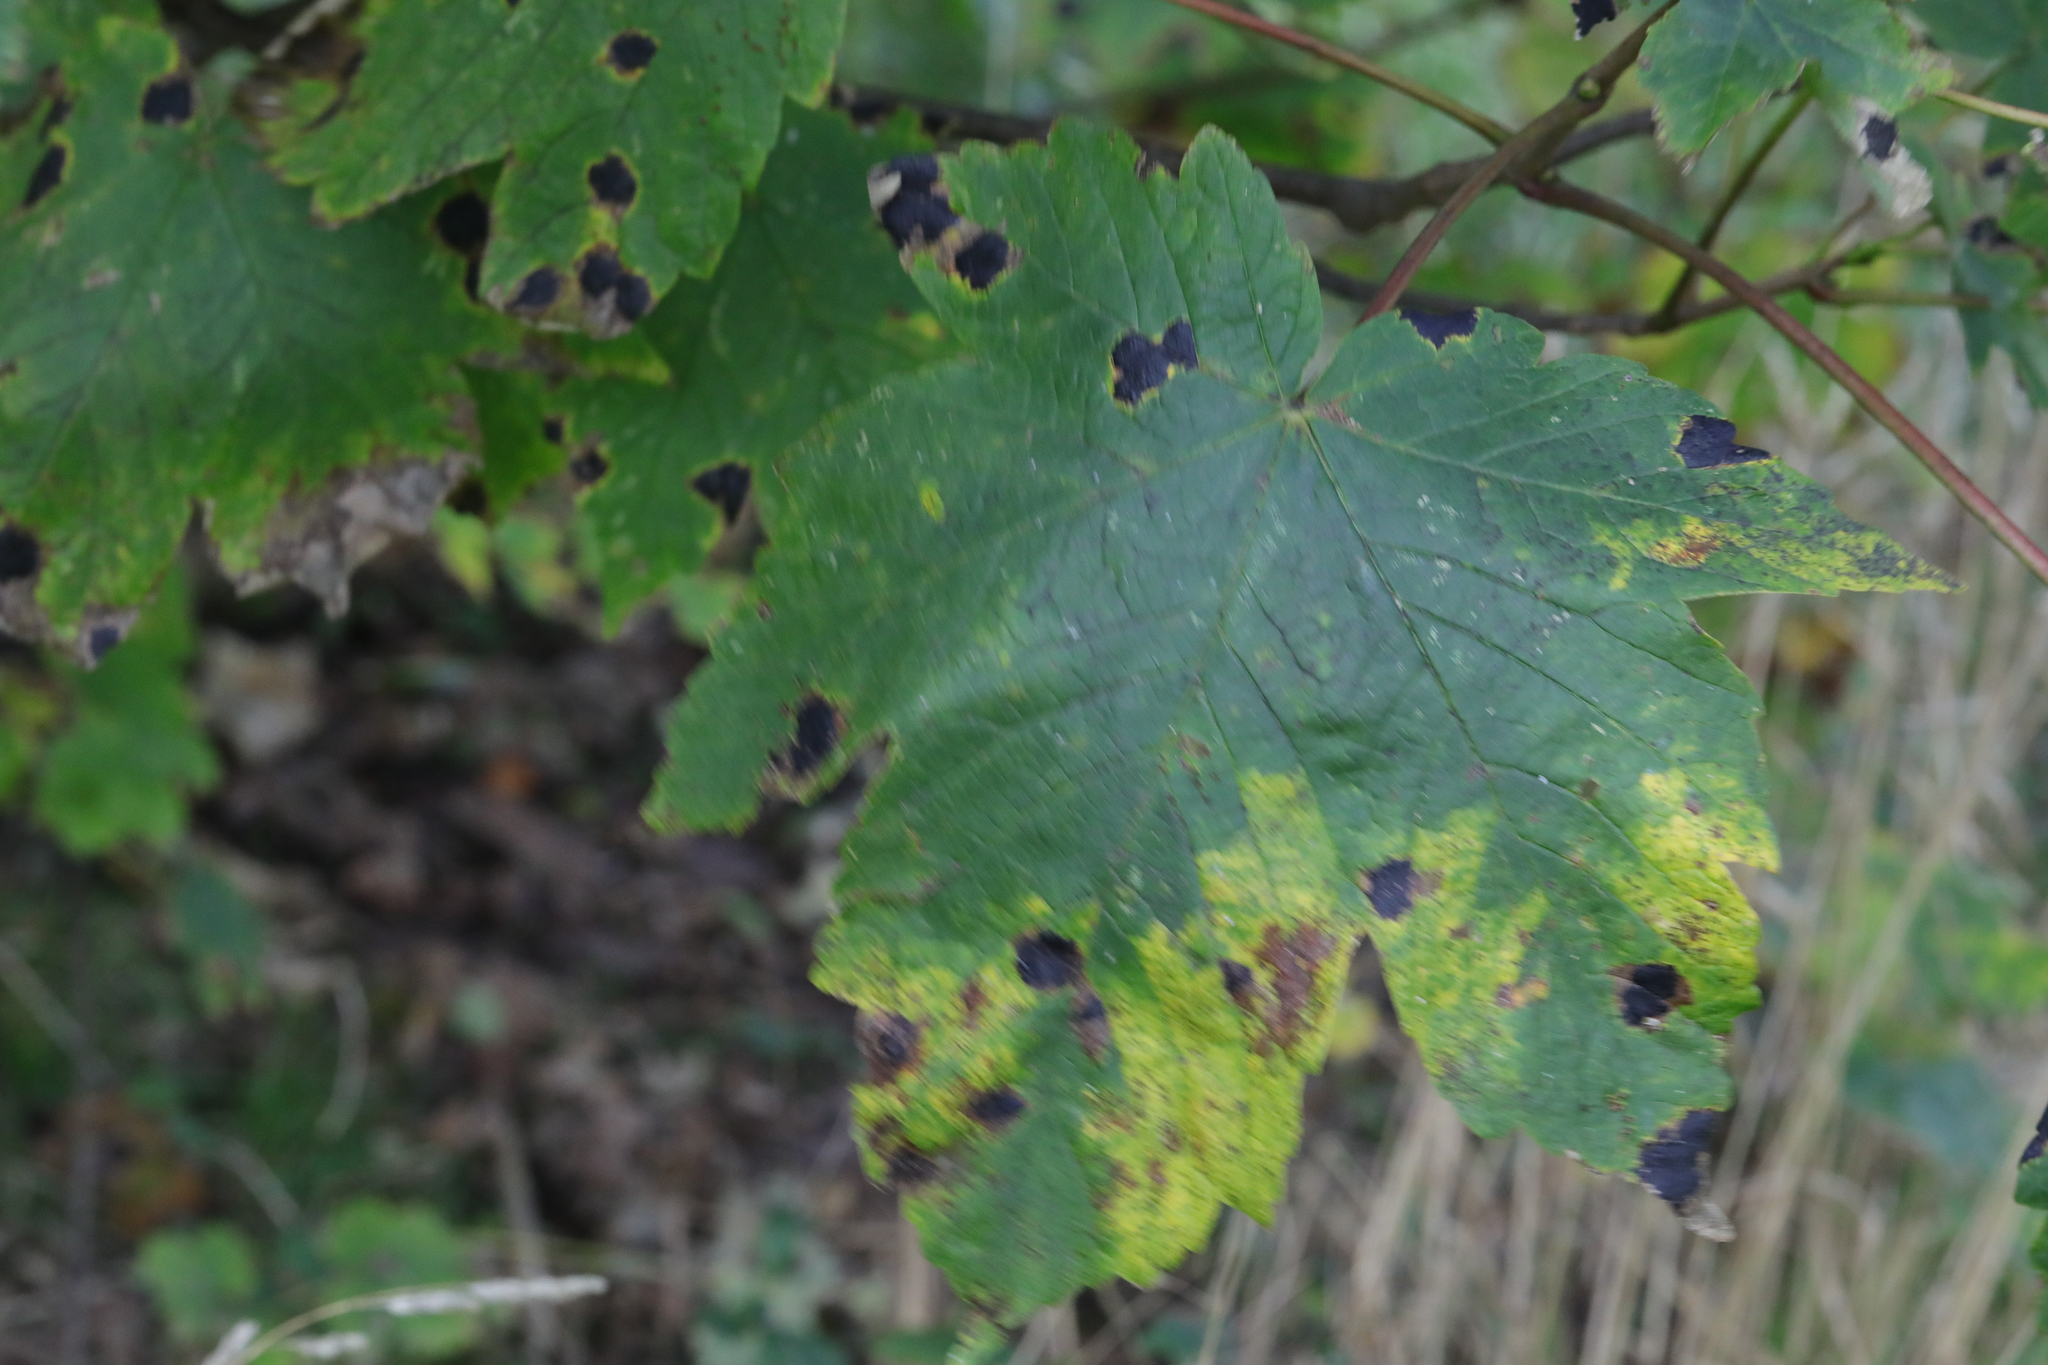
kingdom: Fungi
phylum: Ascomycota
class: Leotiomycetes
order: Rhytismatales
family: Rhytismataceae
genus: Rhytisma
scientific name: Rhytisma acerinum
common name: European tar spot
